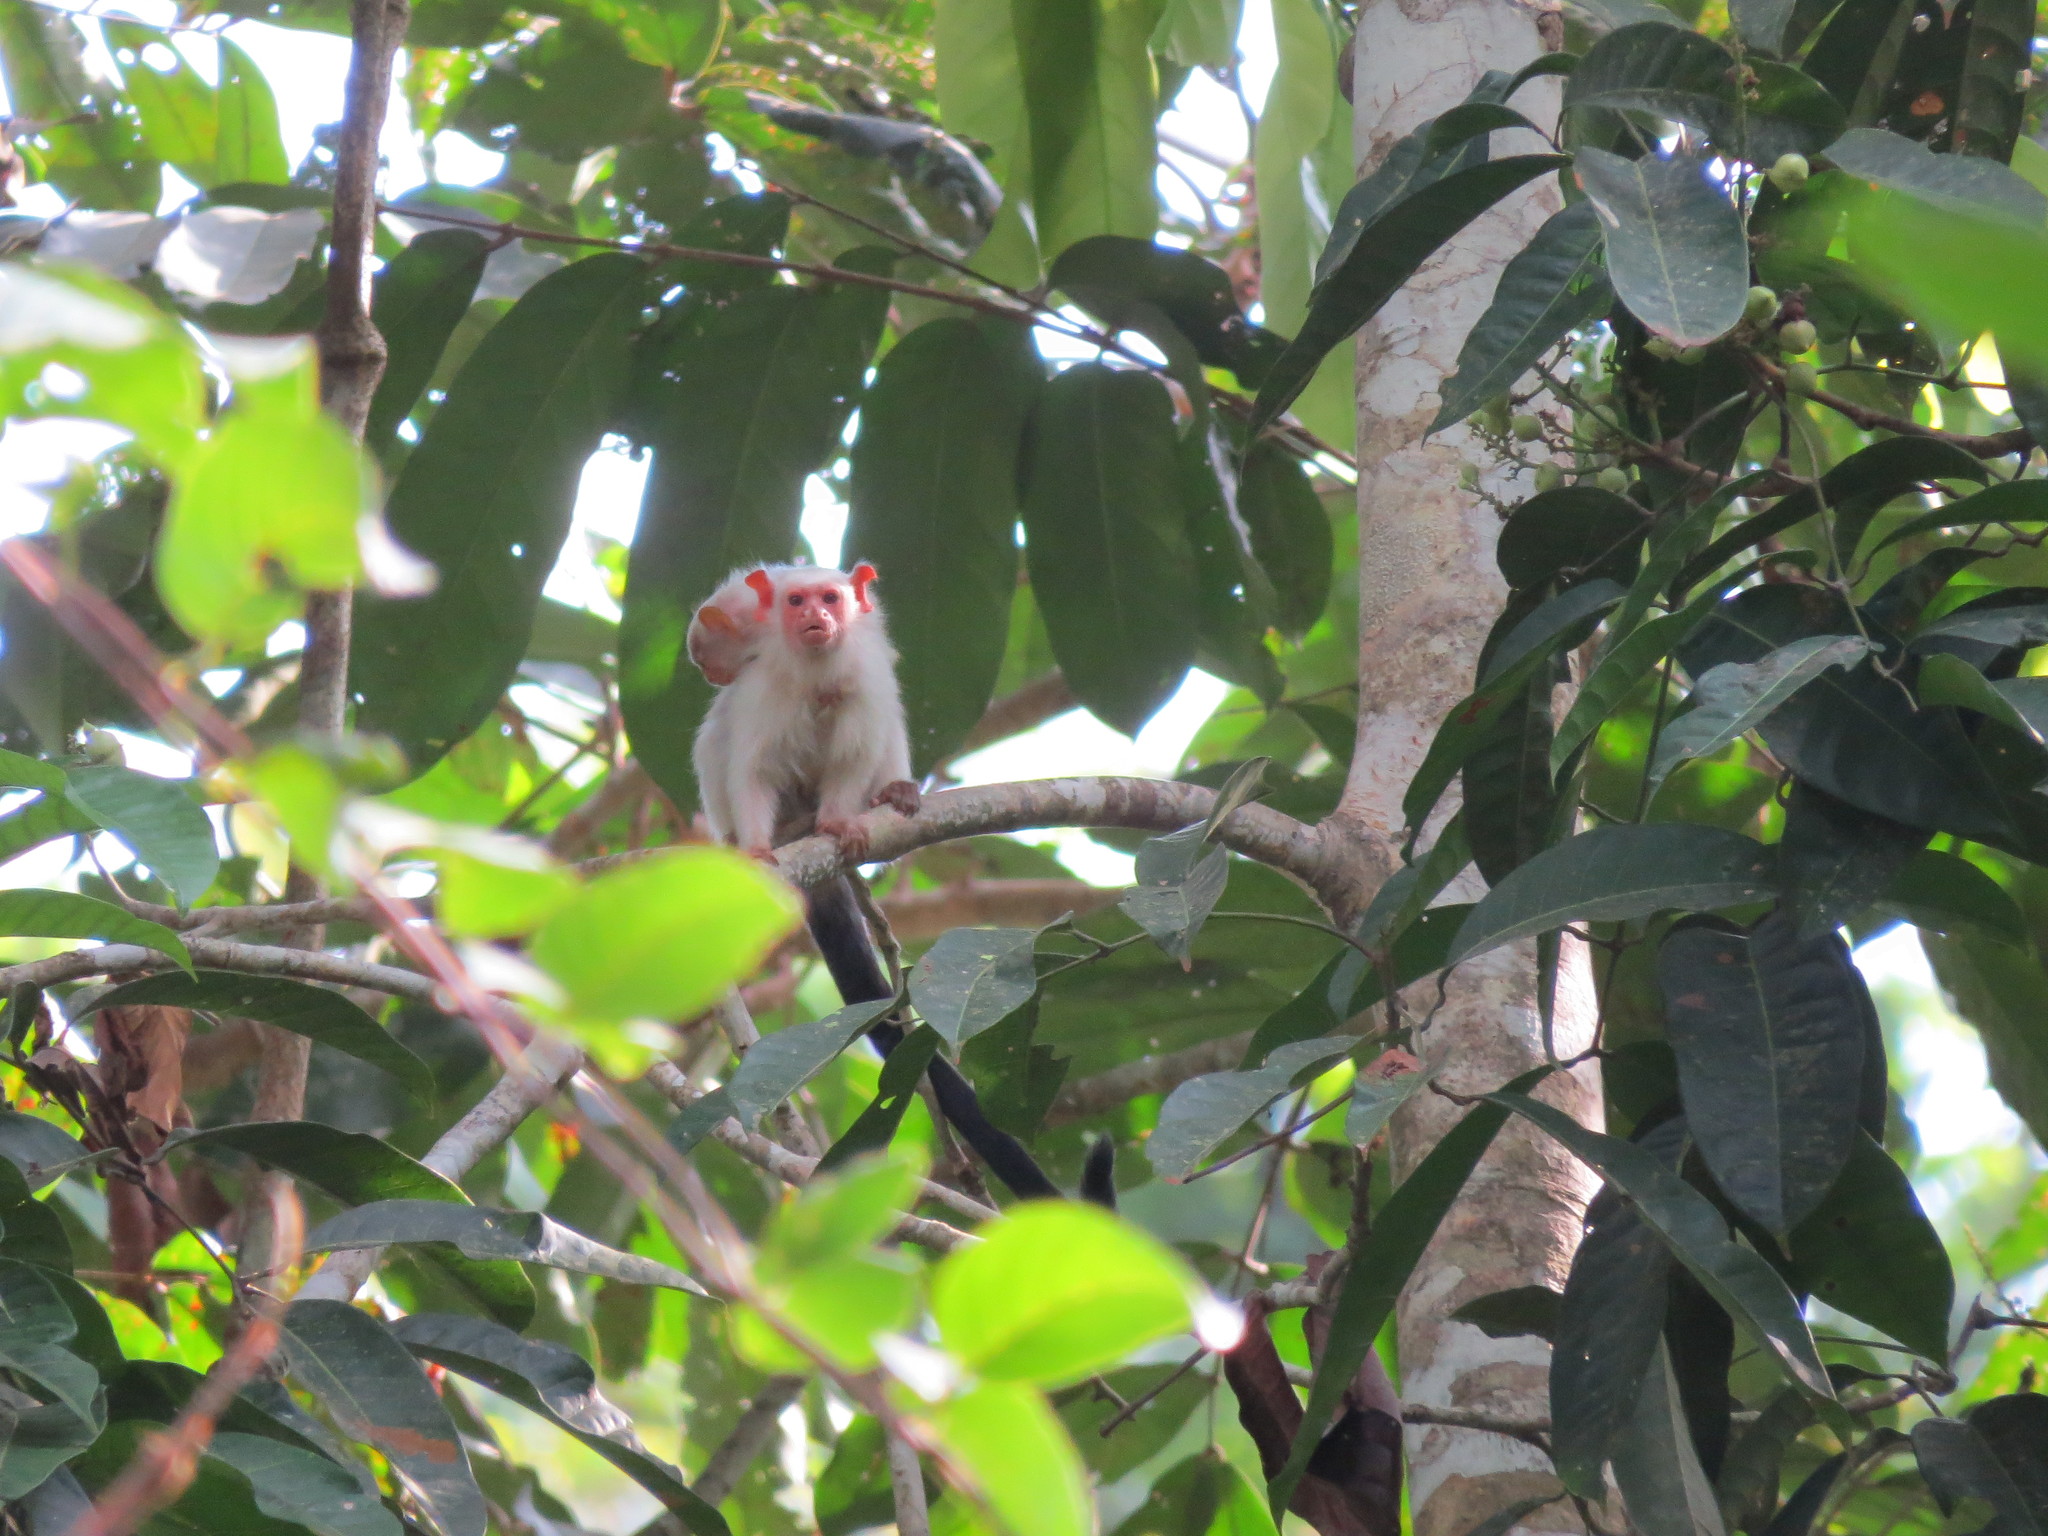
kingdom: Animalia
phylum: Chordata
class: Mammalia
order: Primates
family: Callitrichidae
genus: Mico
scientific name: Mico argentatus
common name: Silvery marmoset
